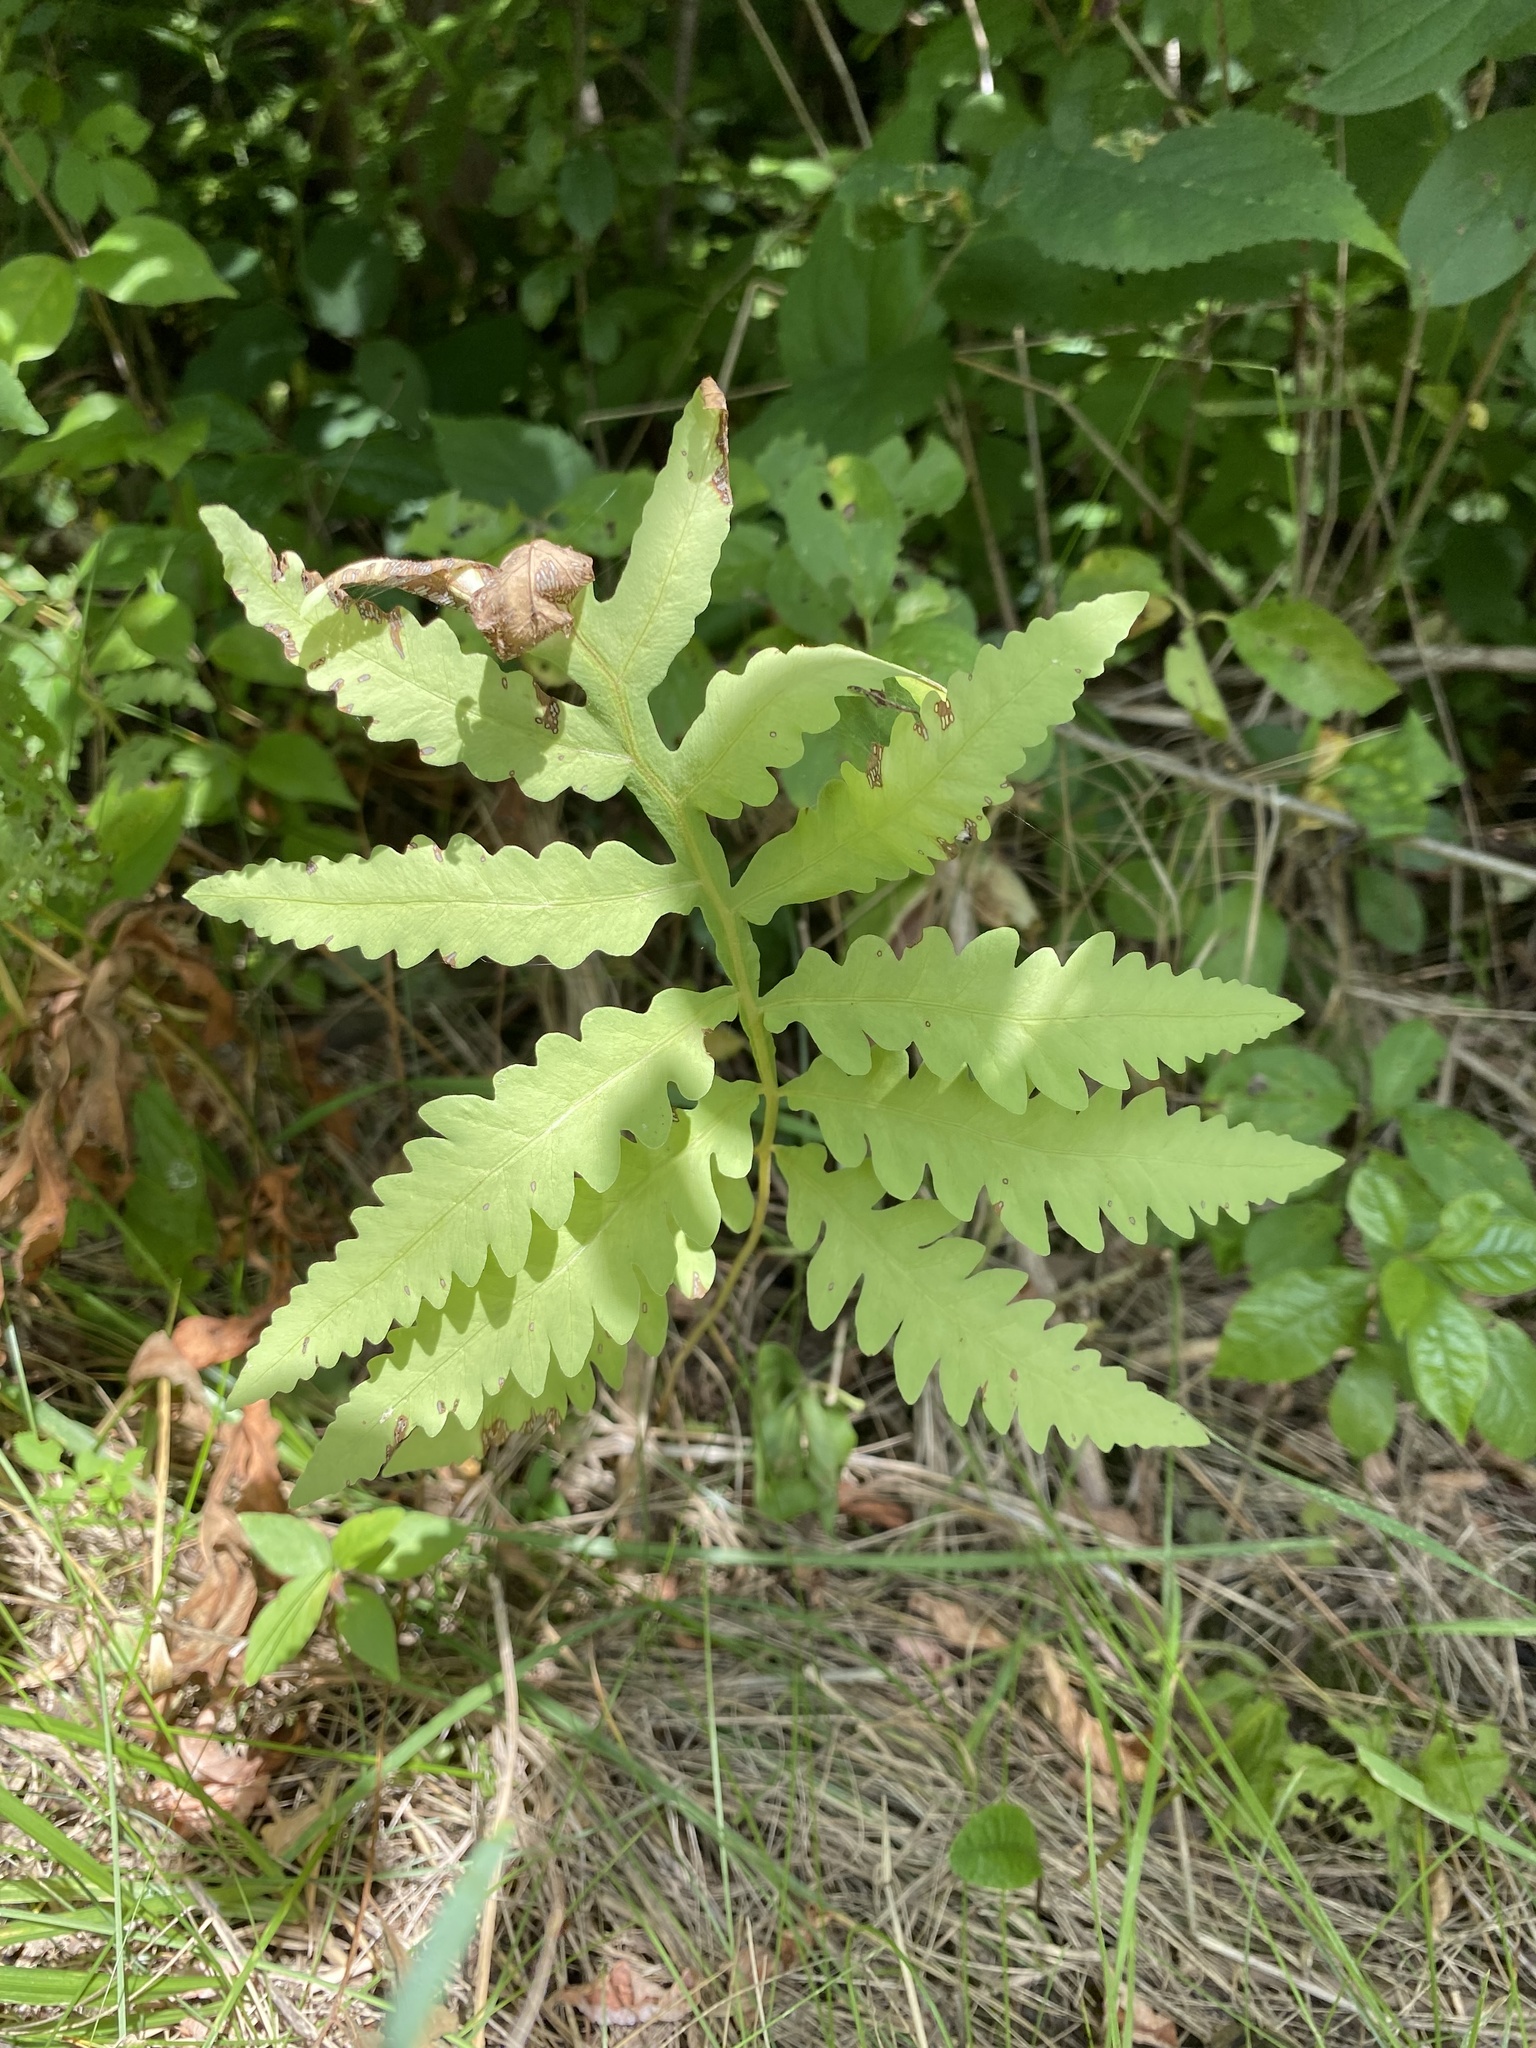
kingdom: Plantae
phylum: Tracheophyta
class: Polypodiopsida
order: Polypodiales
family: Onocleaceae
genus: Onoclea
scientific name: Onoclea sensibilis
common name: Sensitive fern
